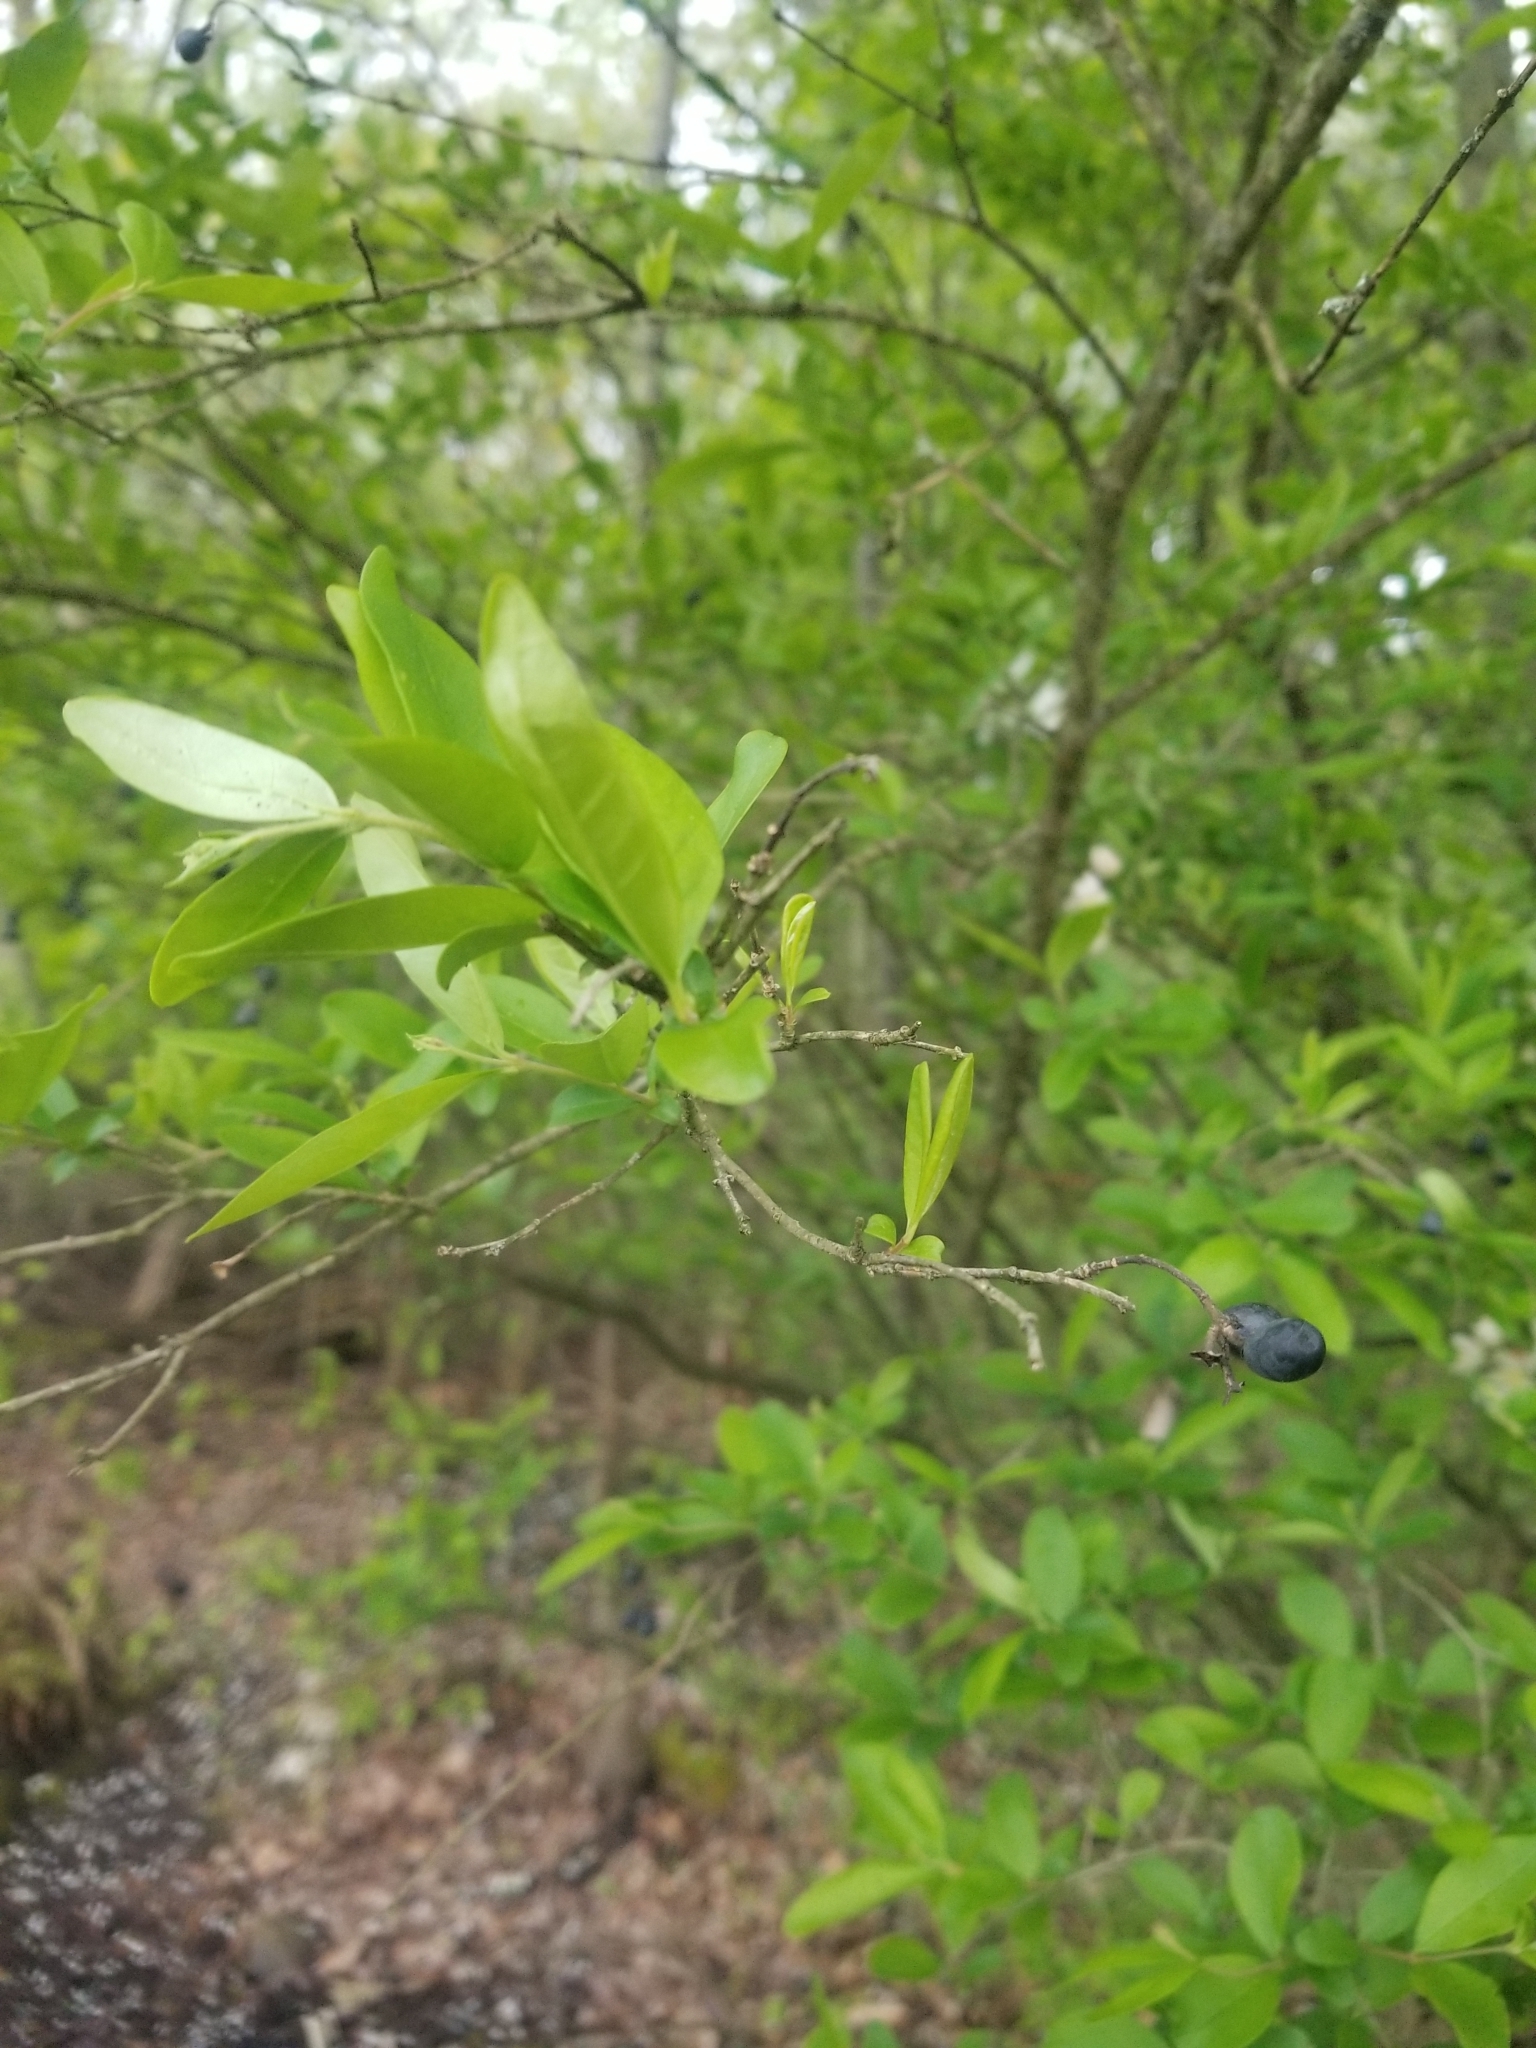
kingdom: Plantae
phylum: Tracheophyta
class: Magnoliopsida
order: Lamiales
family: Oleaceae
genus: Ligustrum
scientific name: Ligustrum obtusifolium
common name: Border privet
